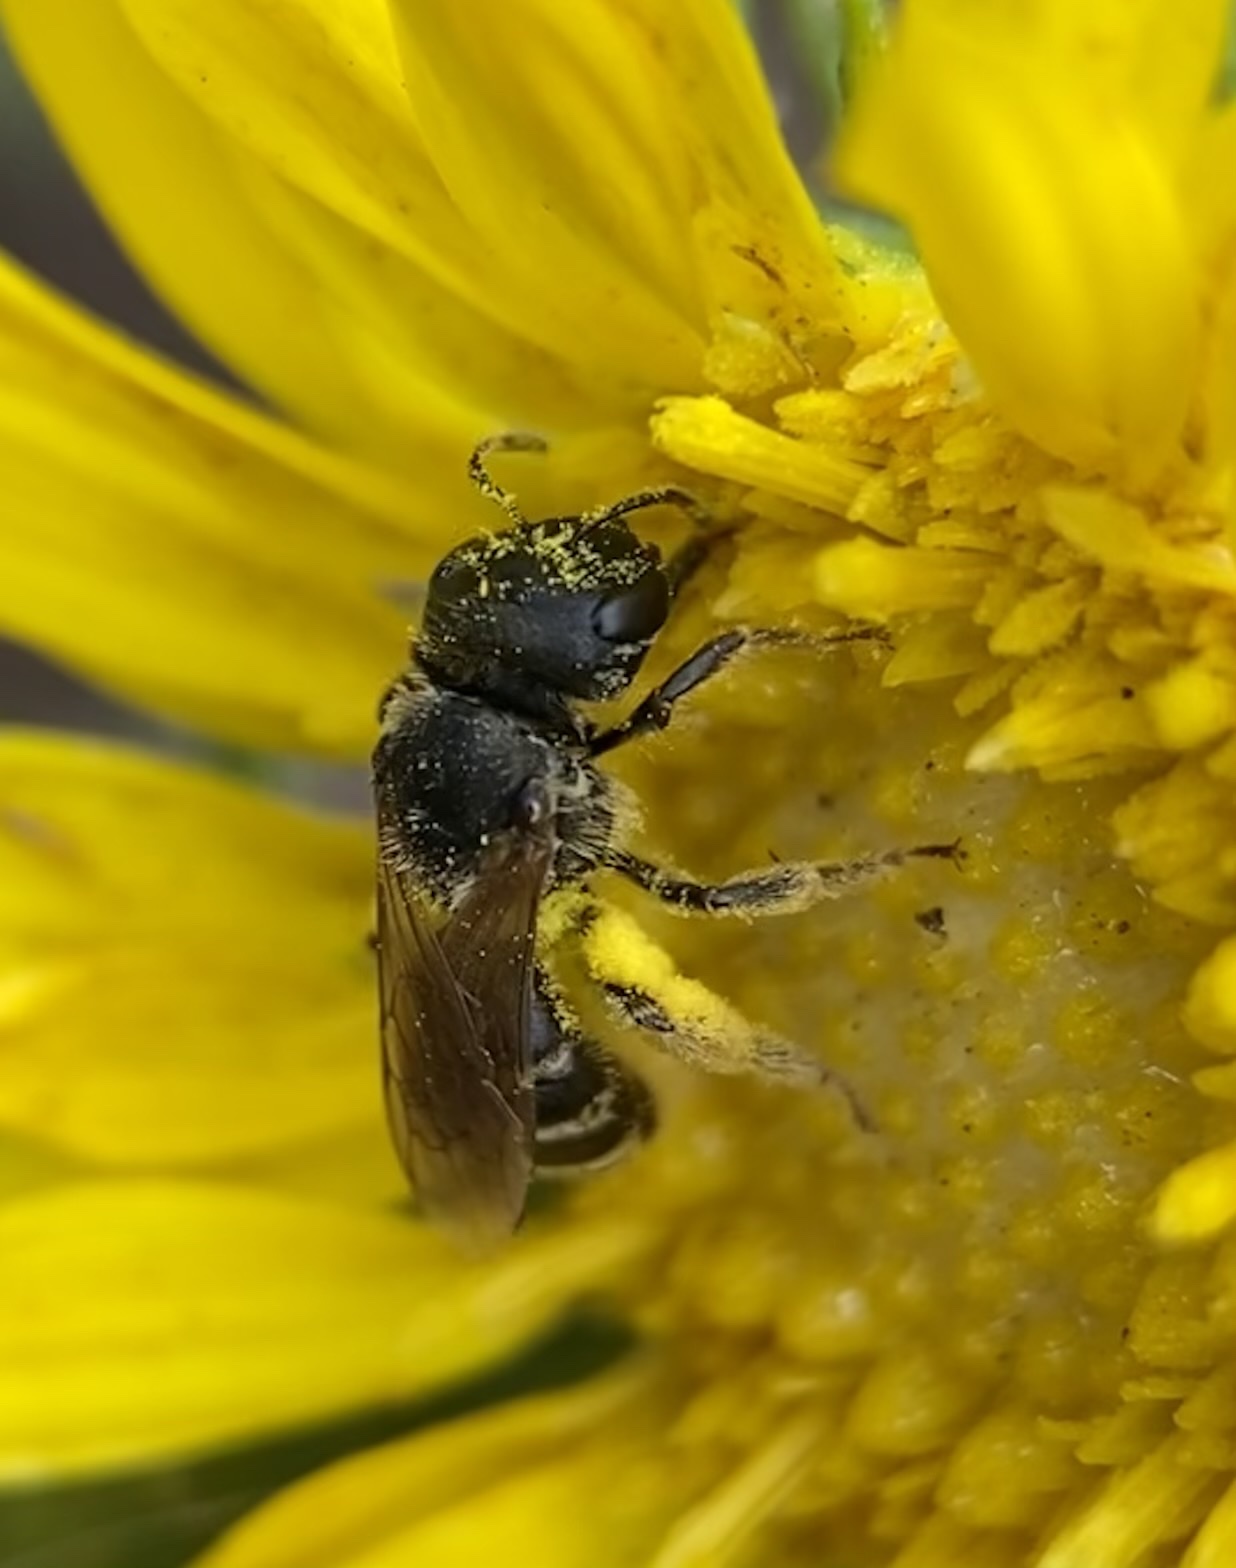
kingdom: Animalia
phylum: Arthropoda
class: Insecta
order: Hymenoptera
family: Halictidae
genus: Halictus
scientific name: Halictus ligatus
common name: Ligated furrow bee
